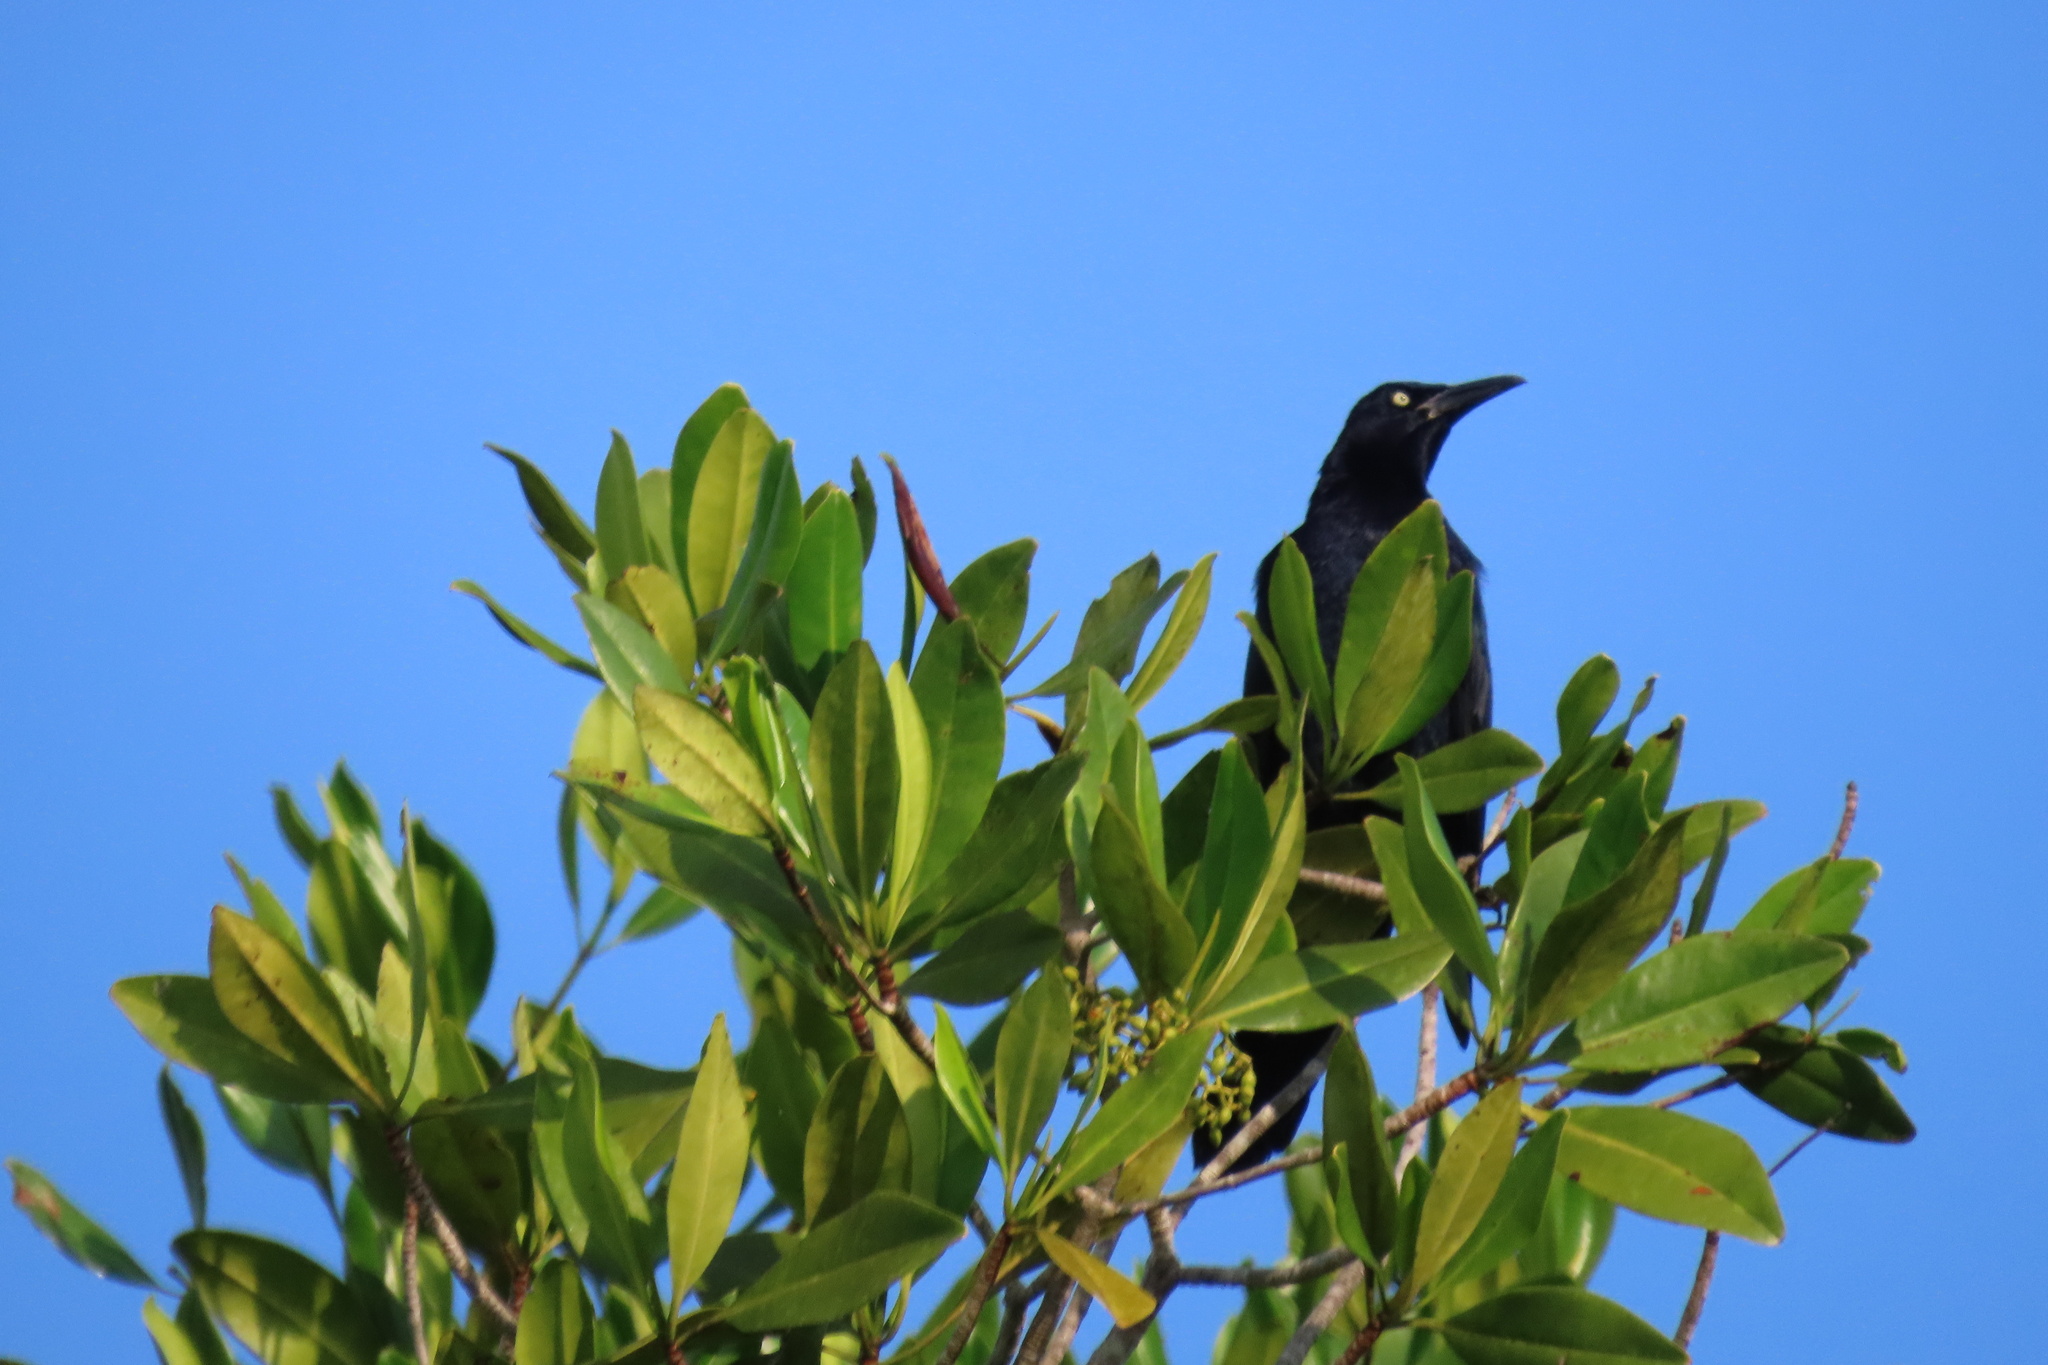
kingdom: Animalia
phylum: Chordata
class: Aves
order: Passeriformes
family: Icteridae
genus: Quiscalus
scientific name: Quiscalus mexicanus
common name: Great-tailed grackle
